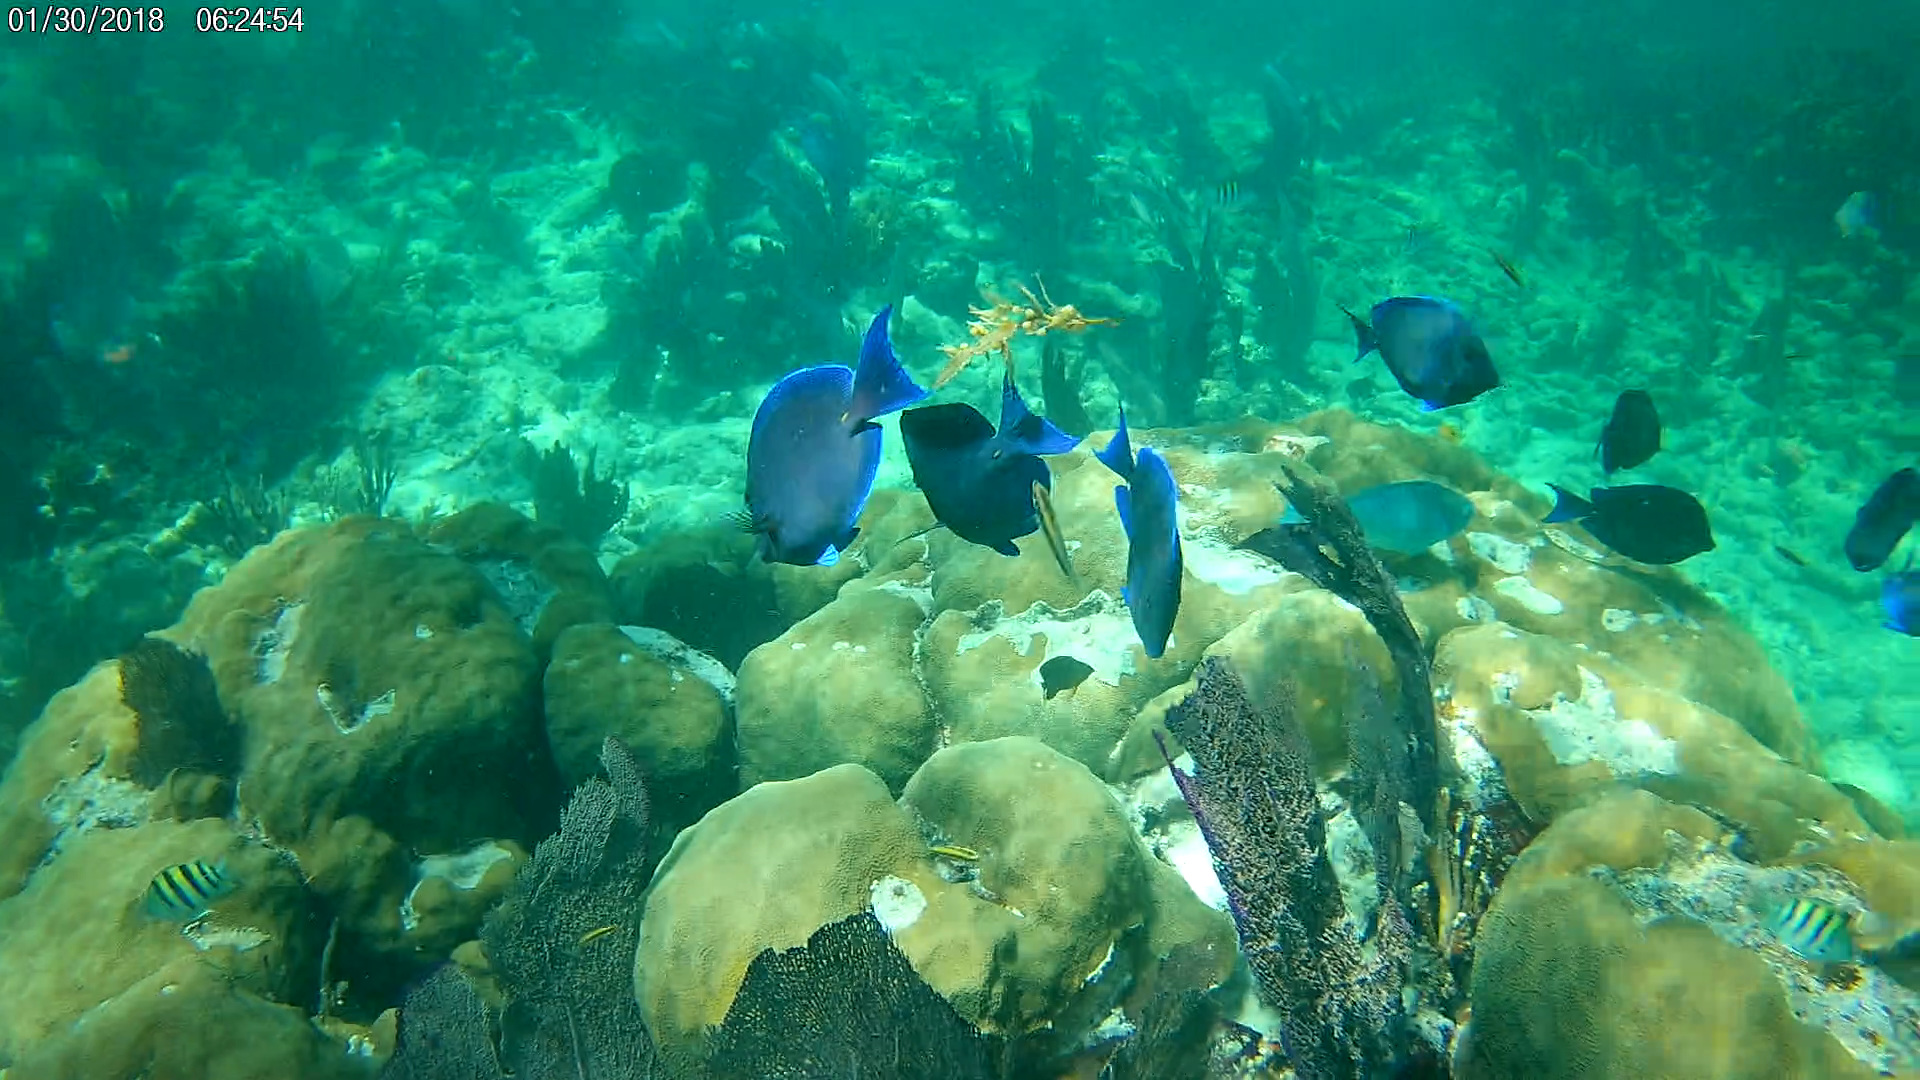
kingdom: Animalia
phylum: Chordata
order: Perciformes
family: Acanthuridae
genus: Acanthurus
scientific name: Acanthurus coeruleus
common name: Blue tang
